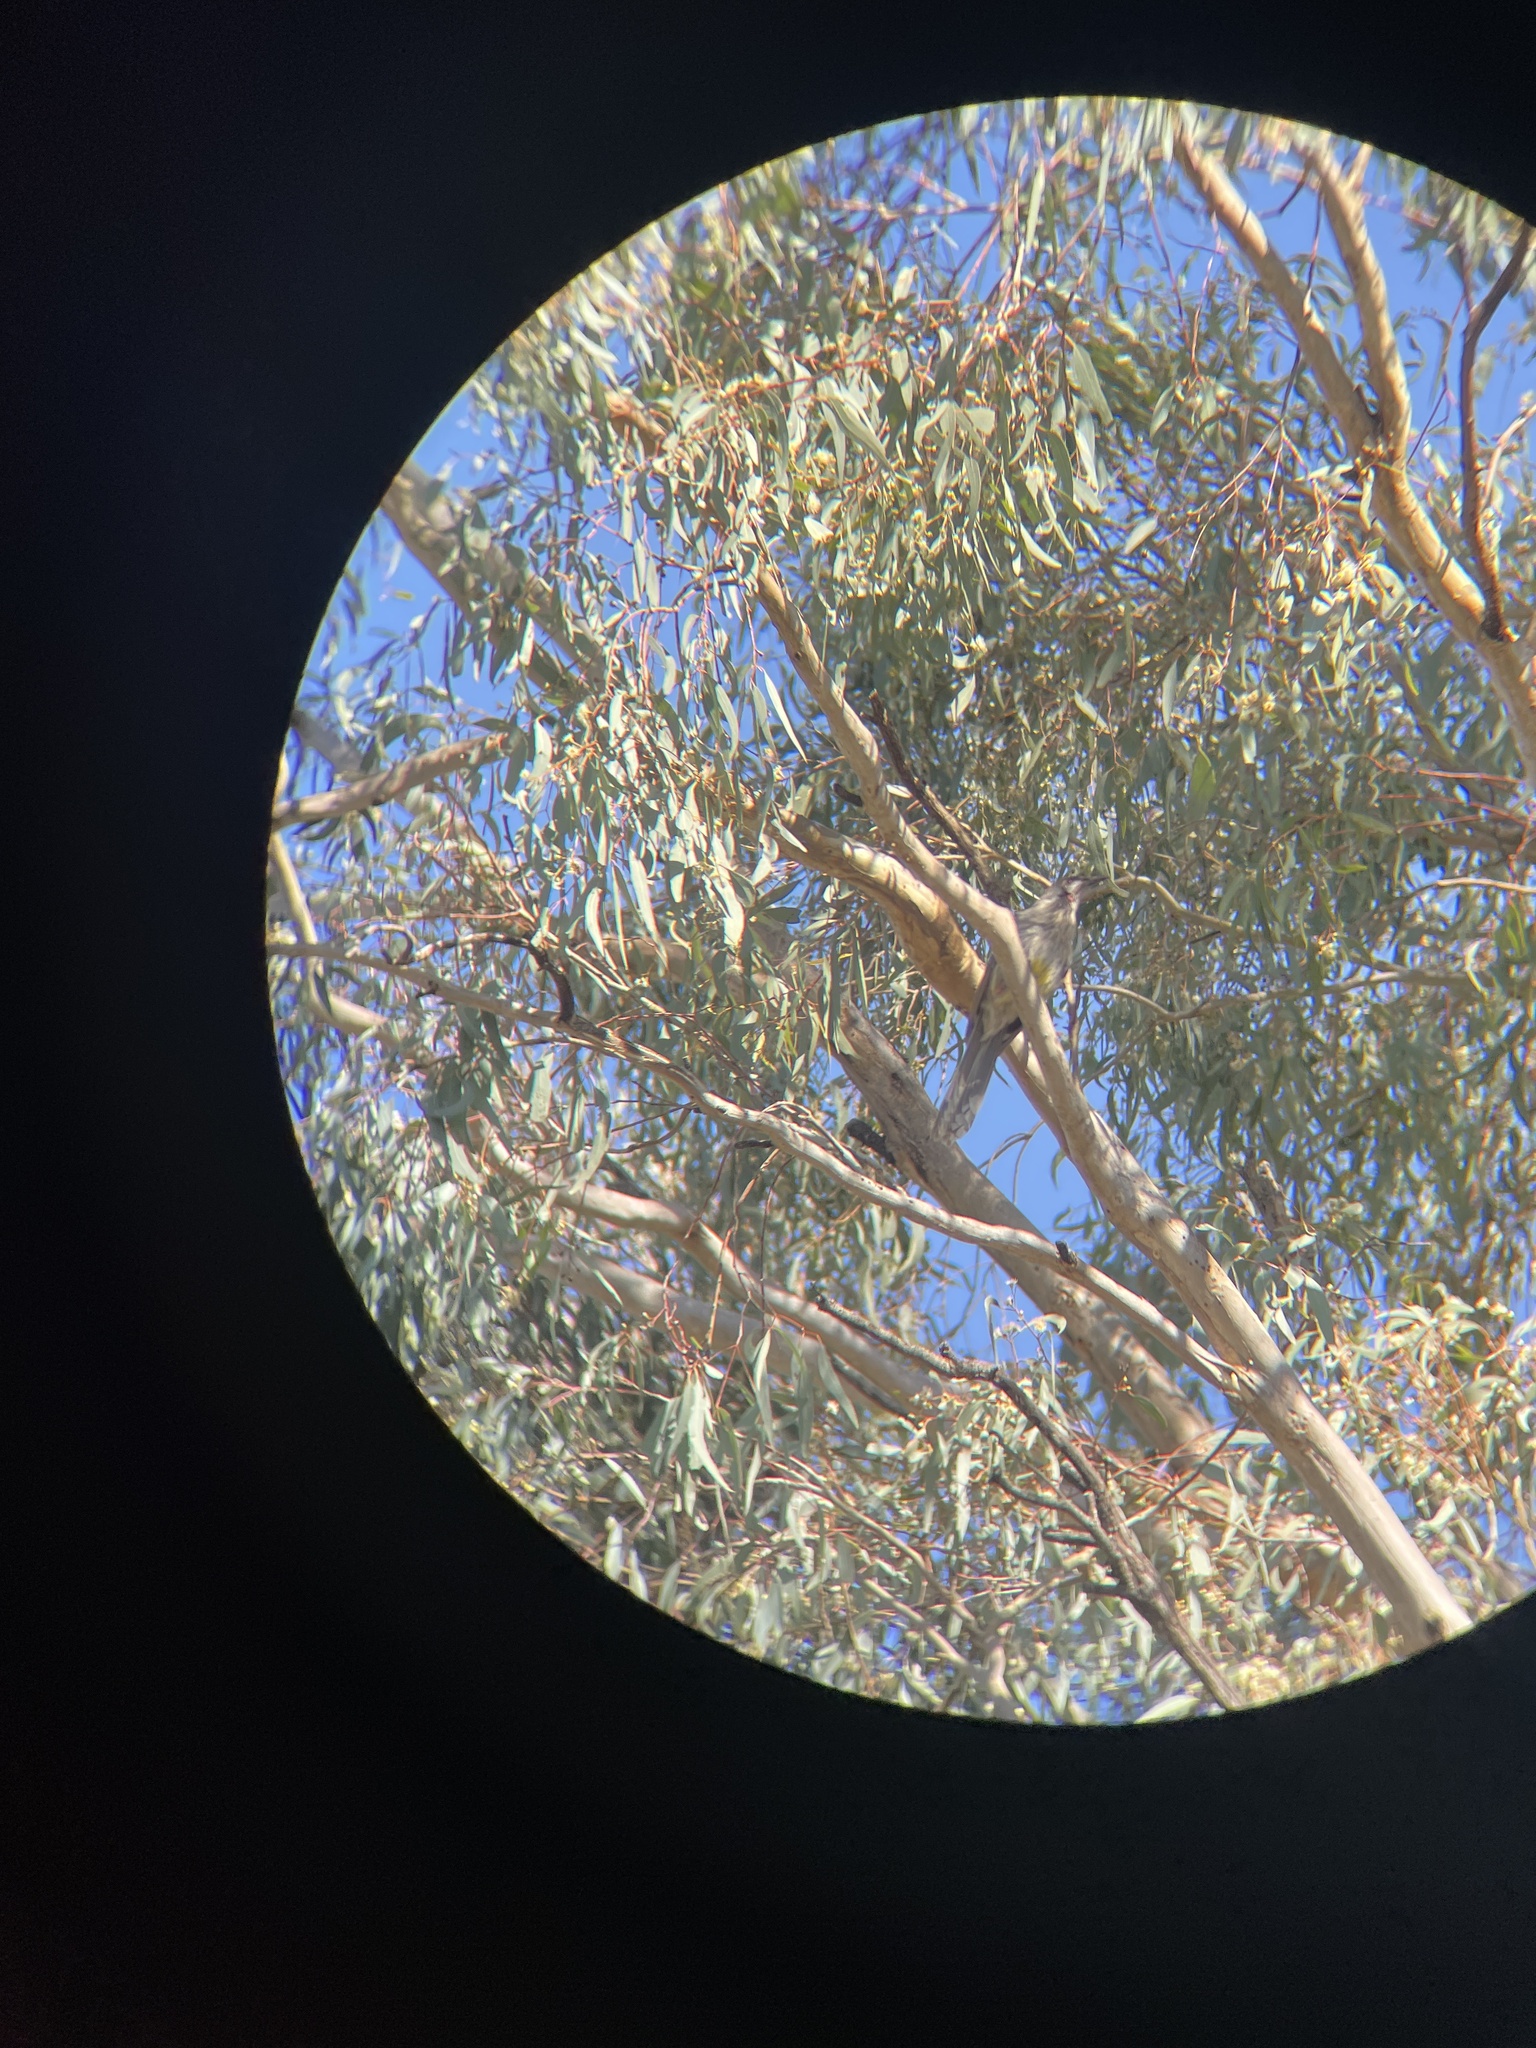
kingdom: Animalia
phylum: Chordata
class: Aves
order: Passeriformes
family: Meliphagidae
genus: Anthochaera
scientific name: Anthochaera carunculata
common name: Red wattlebird
